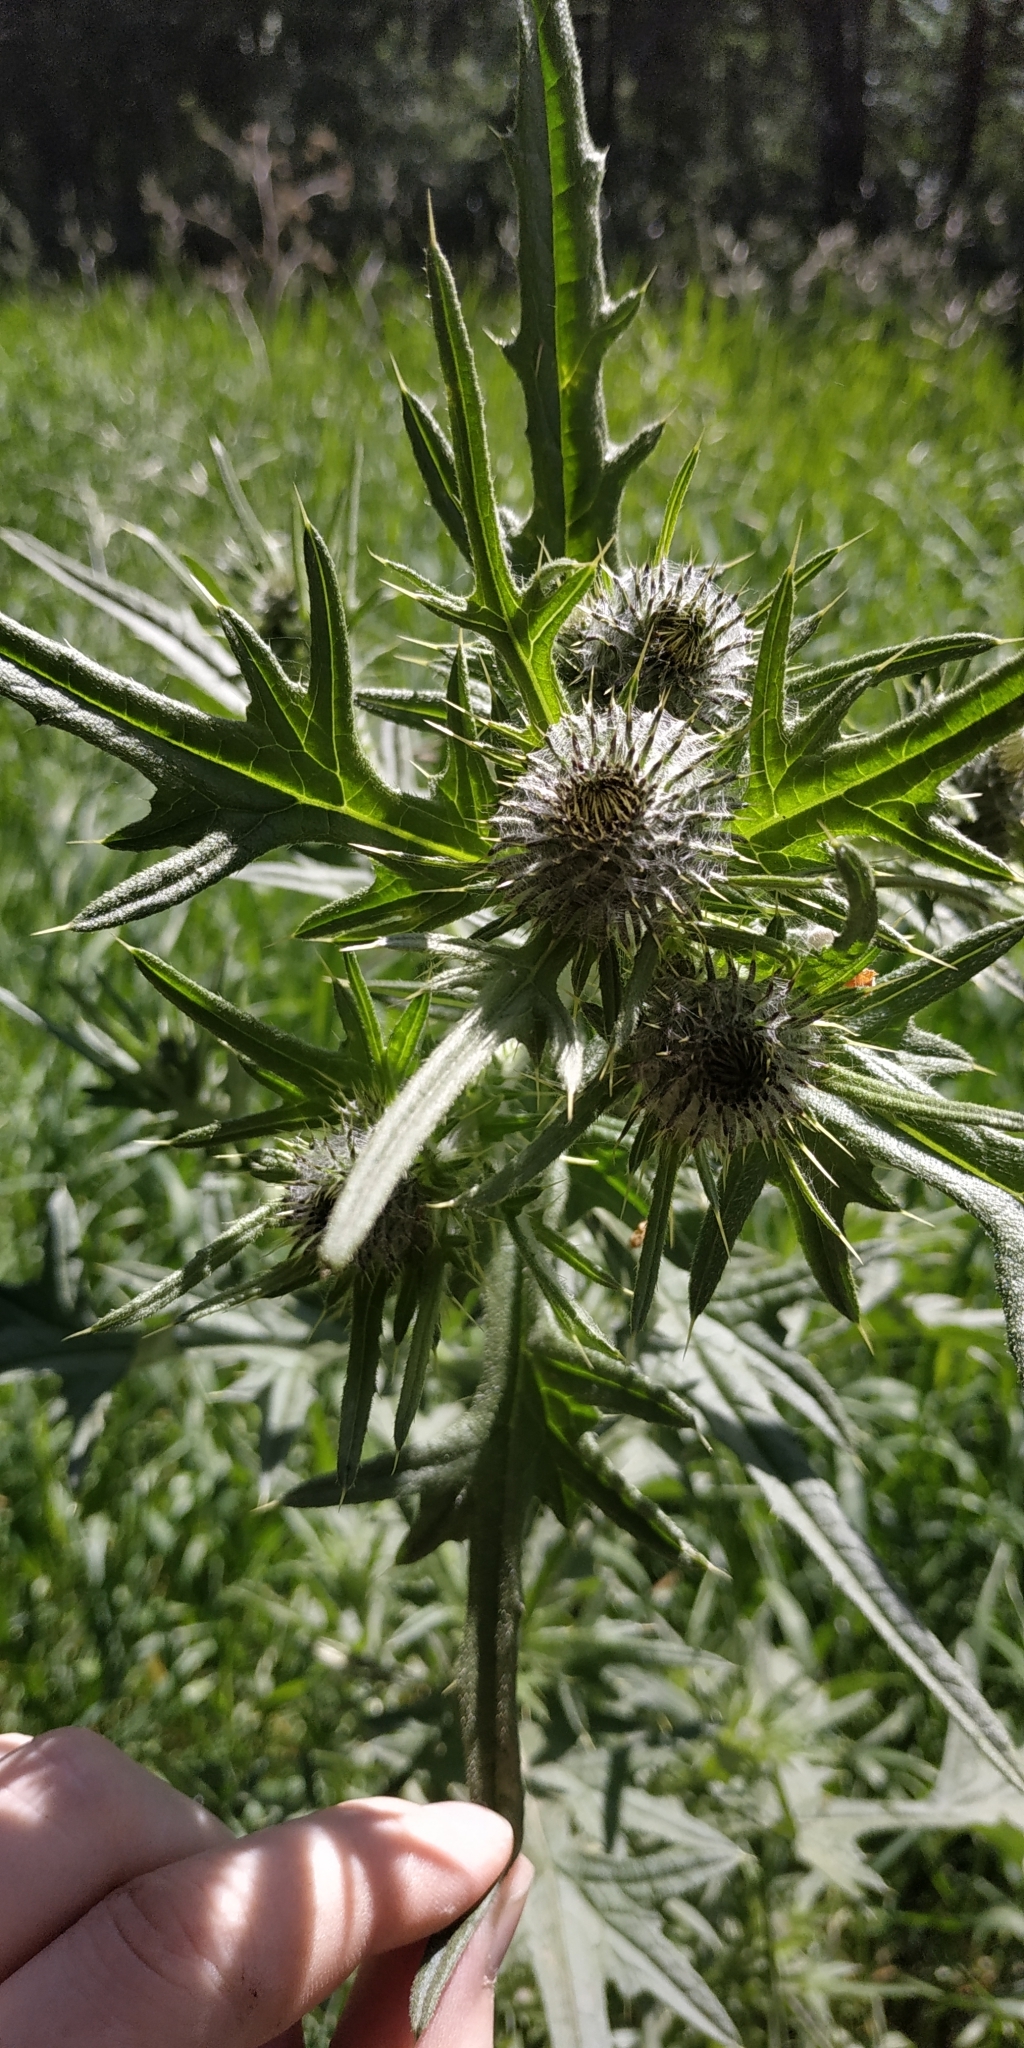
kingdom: Plantae
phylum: Tracheophyta
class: Magnoliopsida
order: Asterales
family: Asteraceae
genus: Cirsium
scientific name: Cirsium vulgare
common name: Bull thistle
